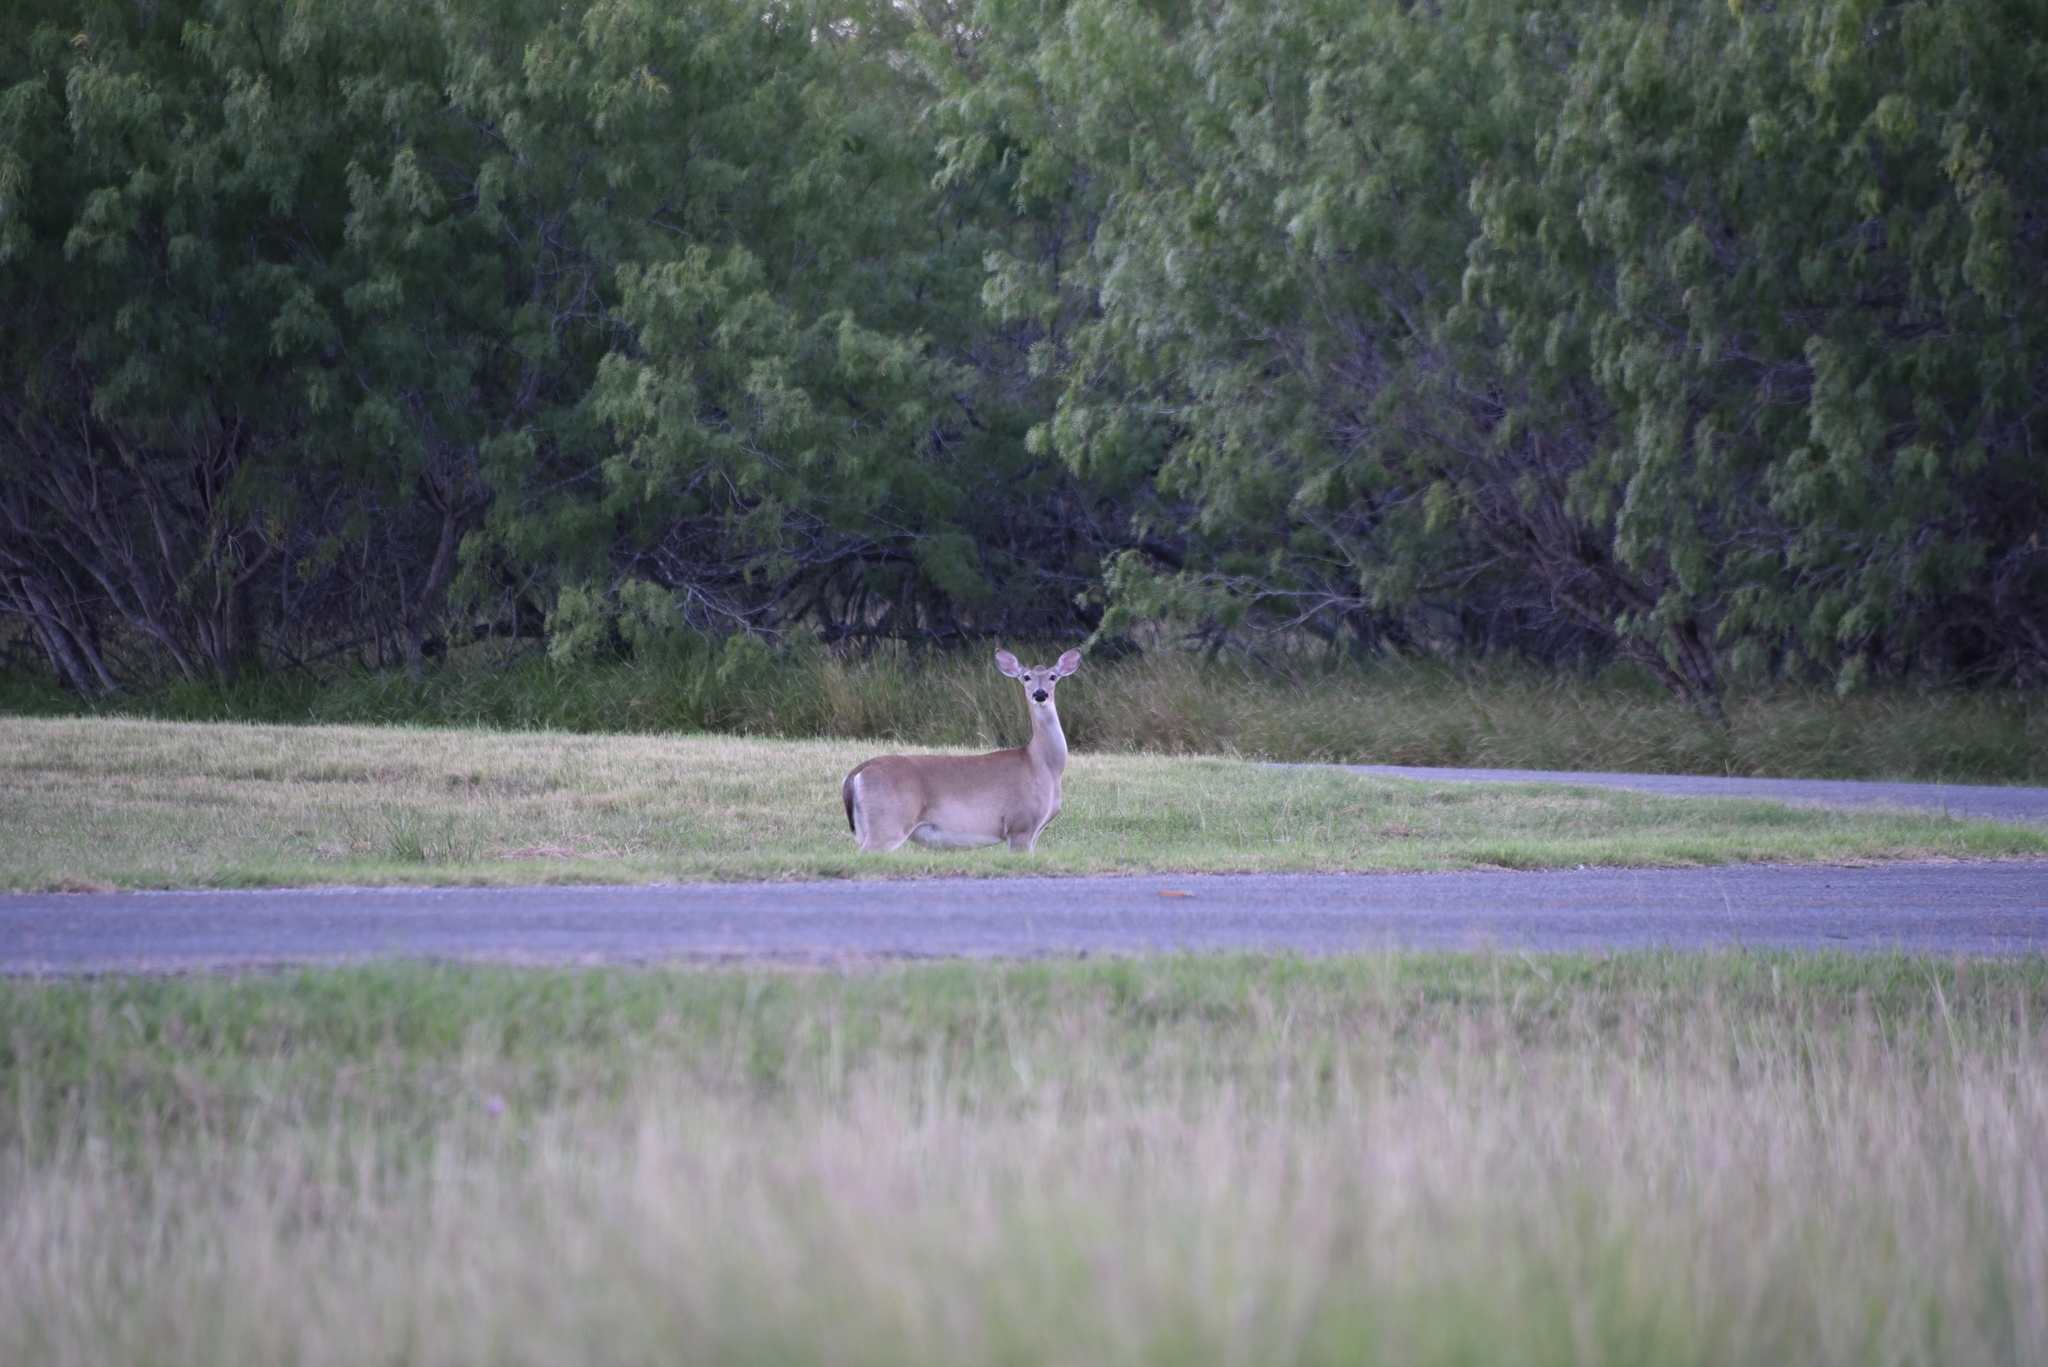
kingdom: Animalia
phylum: Chordata
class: Mammalia
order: Artiodactyla
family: Cervidae
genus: Odocoileus
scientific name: Odocoileus virginianus
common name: White-tailed deer
